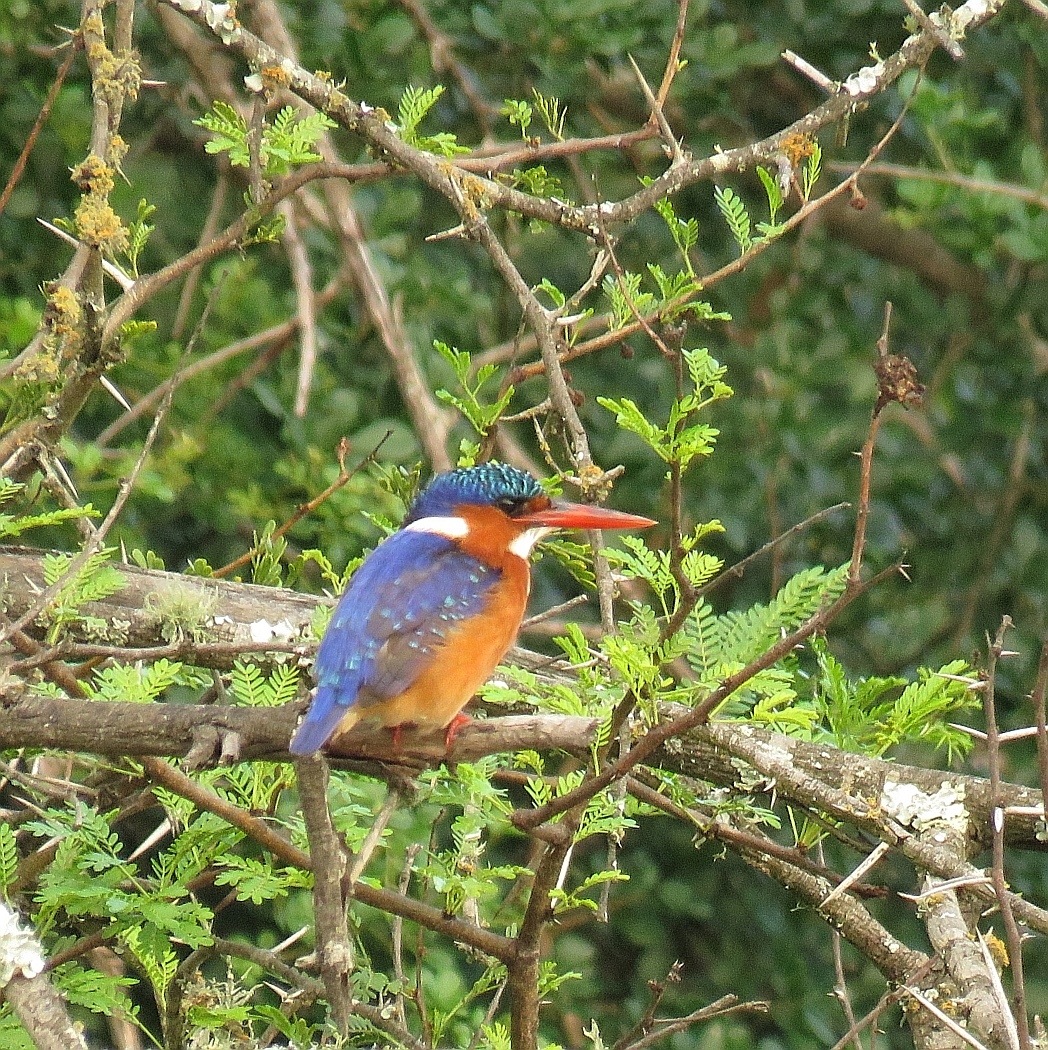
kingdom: Animalia
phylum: Chordata
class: Aves
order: Coraciiformes
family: Alcedinidae
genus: Corythornis
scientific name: Corythornis cristatus
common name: Malachite kingfisher
